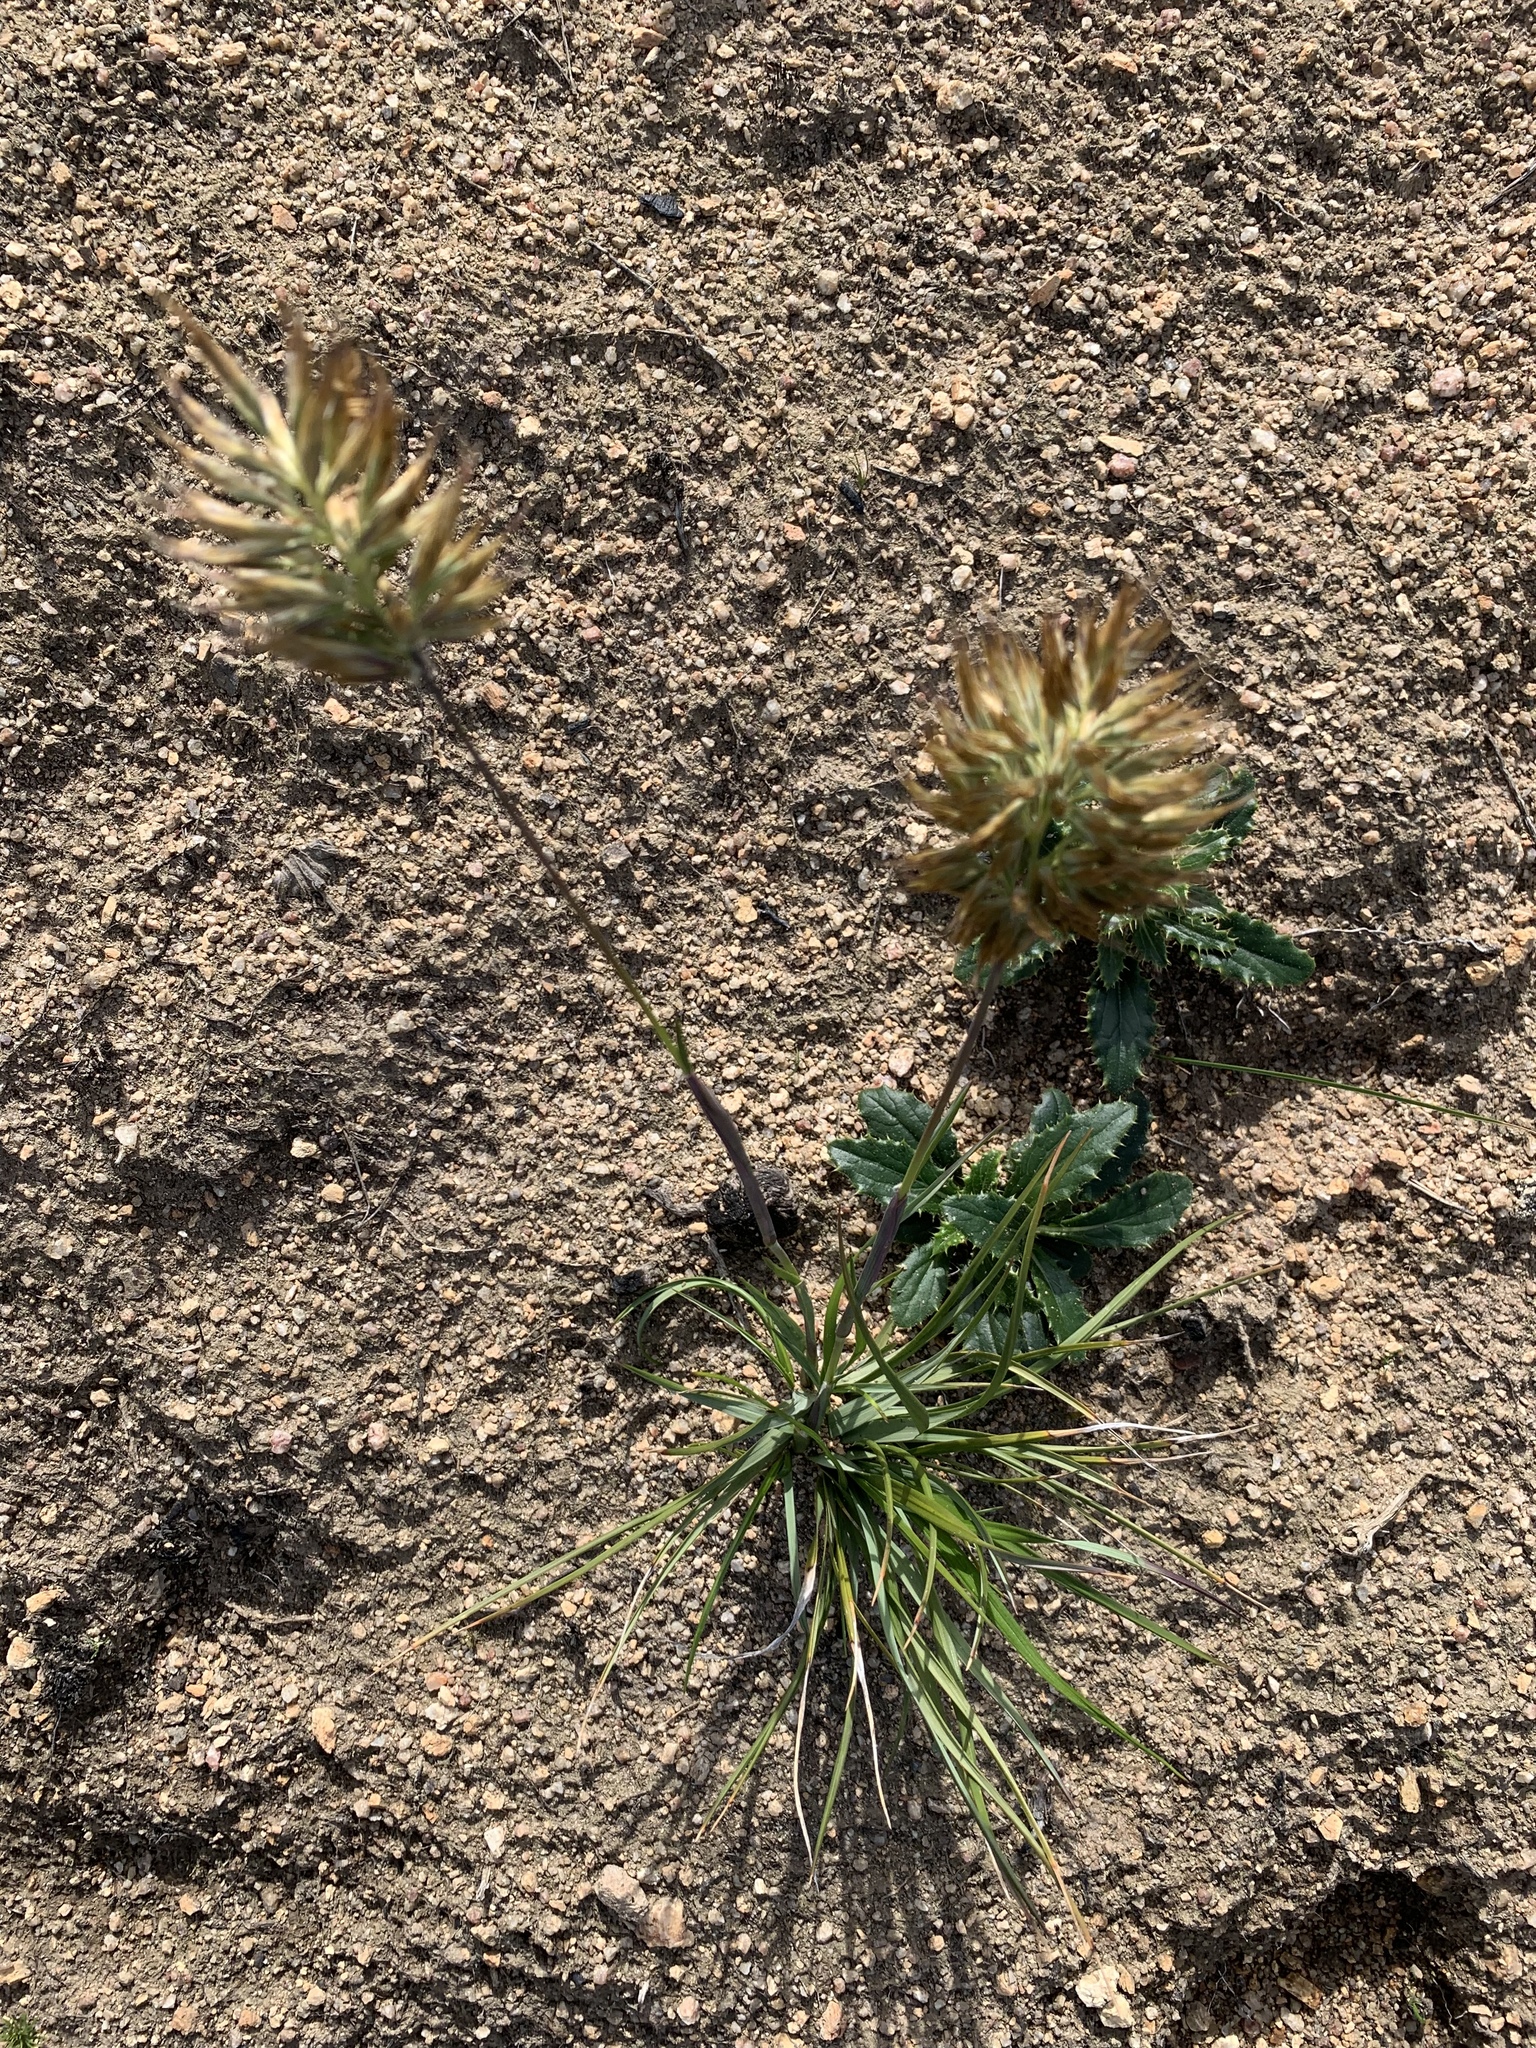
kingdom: Plantae
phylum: Tracheophyta
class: Liliopsida
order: Poales
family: Poaceae
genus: Geochloa
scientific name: Geochloa rufa
